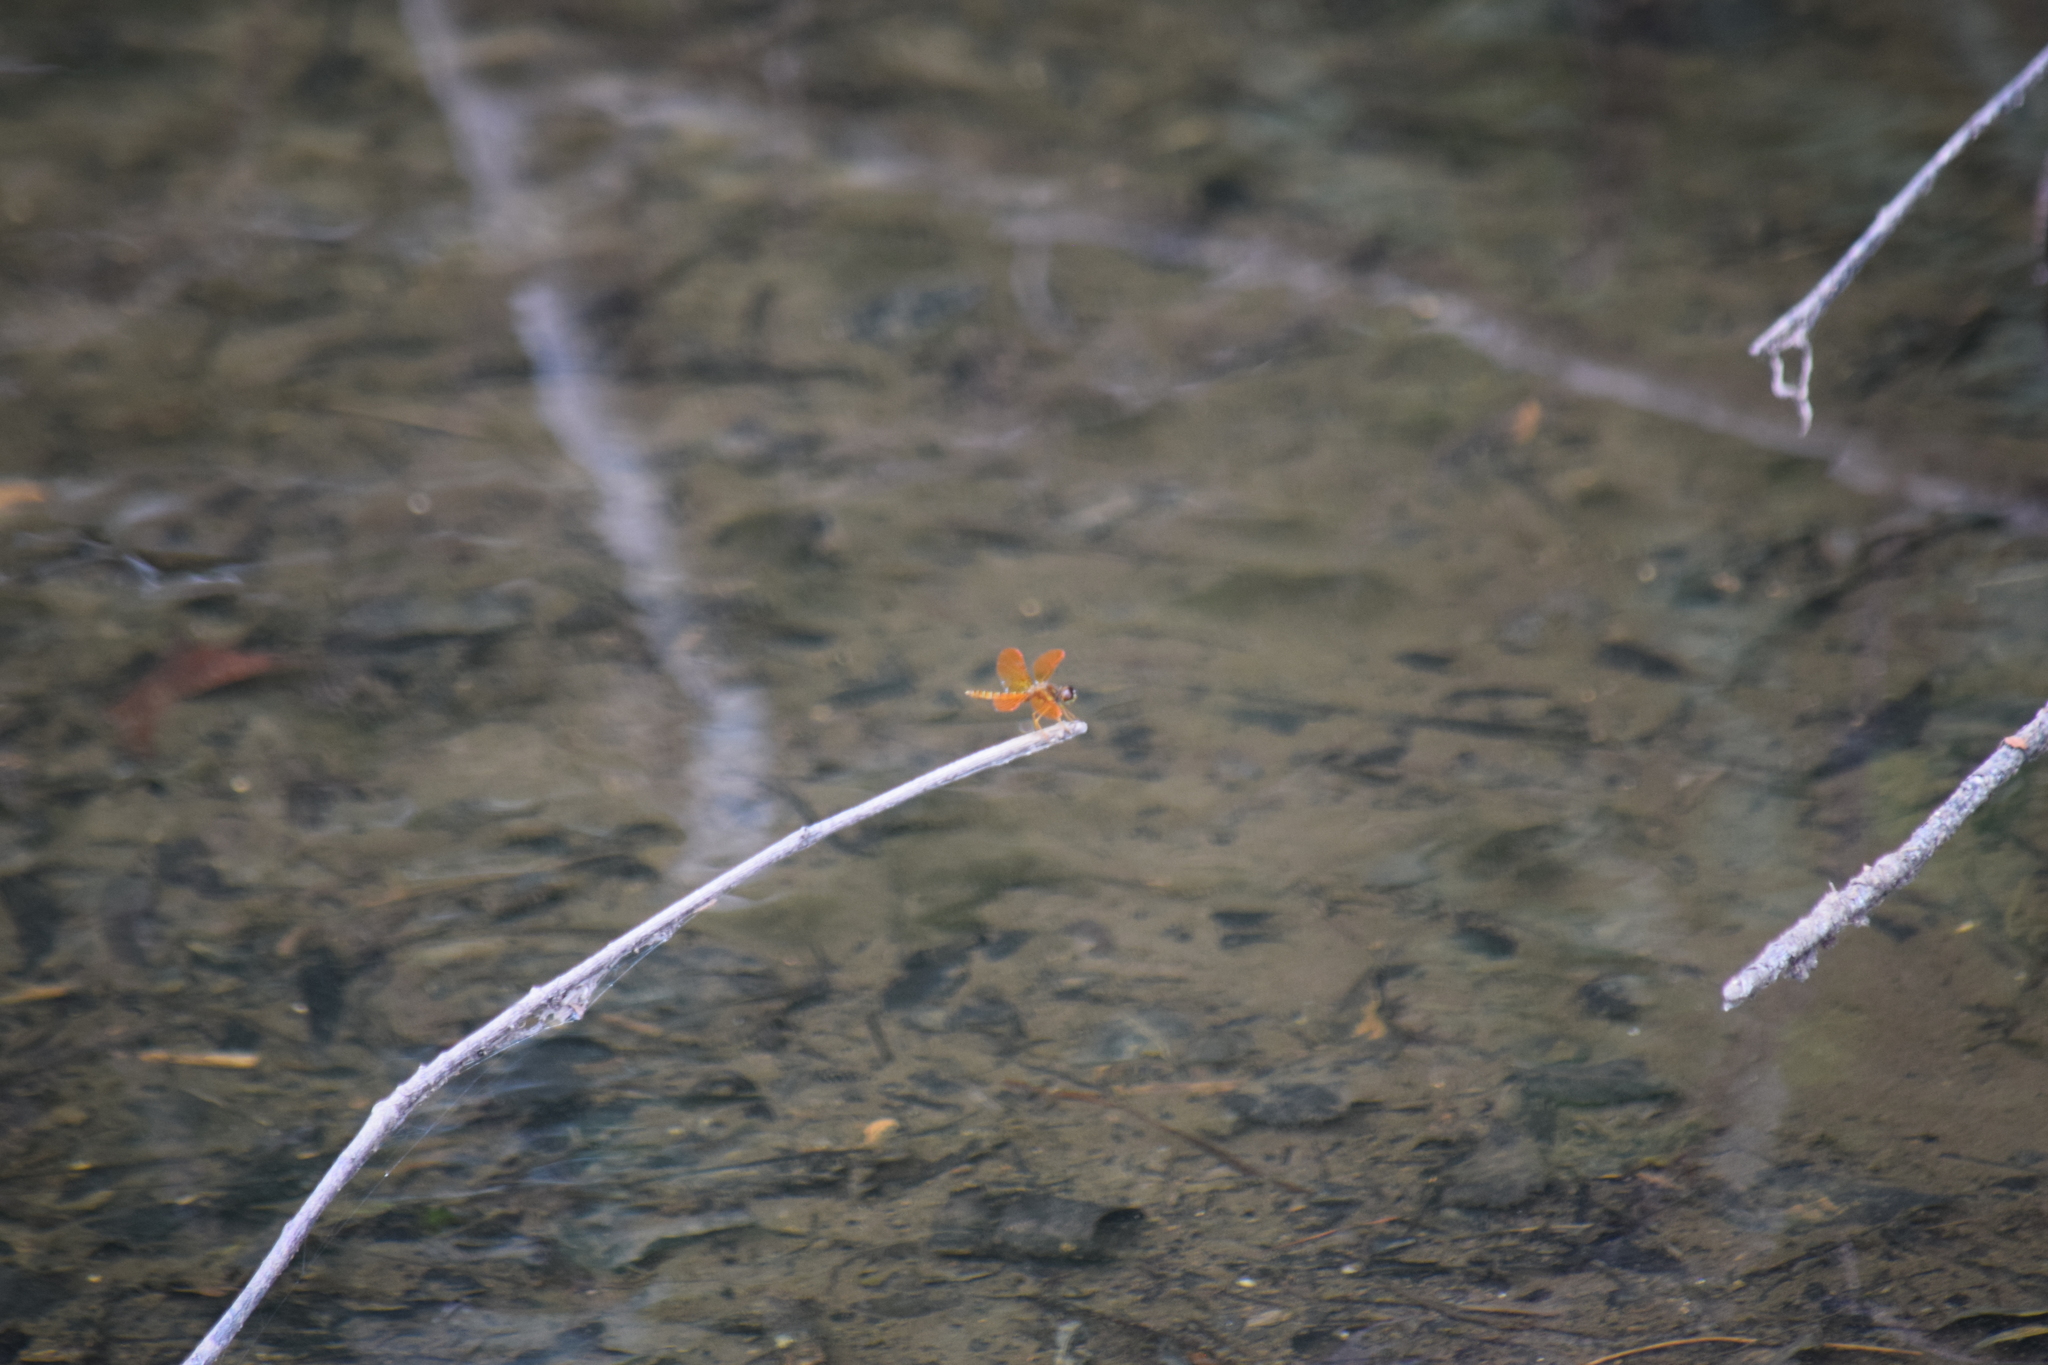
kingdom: Animalia
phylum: Arthropoda
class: Insecta
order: Odonata
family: Libellulidae
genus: Perithemis
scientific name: Perithemis tenera
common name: Eastern amberwing
